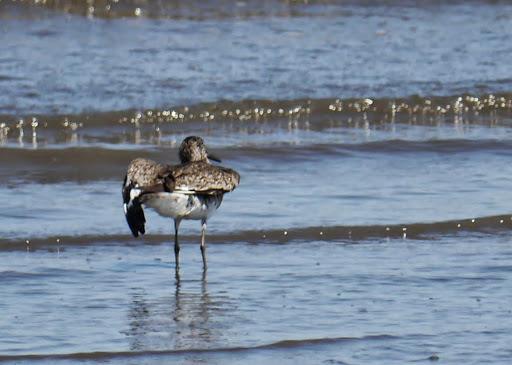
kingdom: Animalia
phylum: Chordata
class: Aves
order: Charadriiformes
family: Scolopacidae
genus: Tringa
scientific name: Tringa semipalmata
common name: Willet
